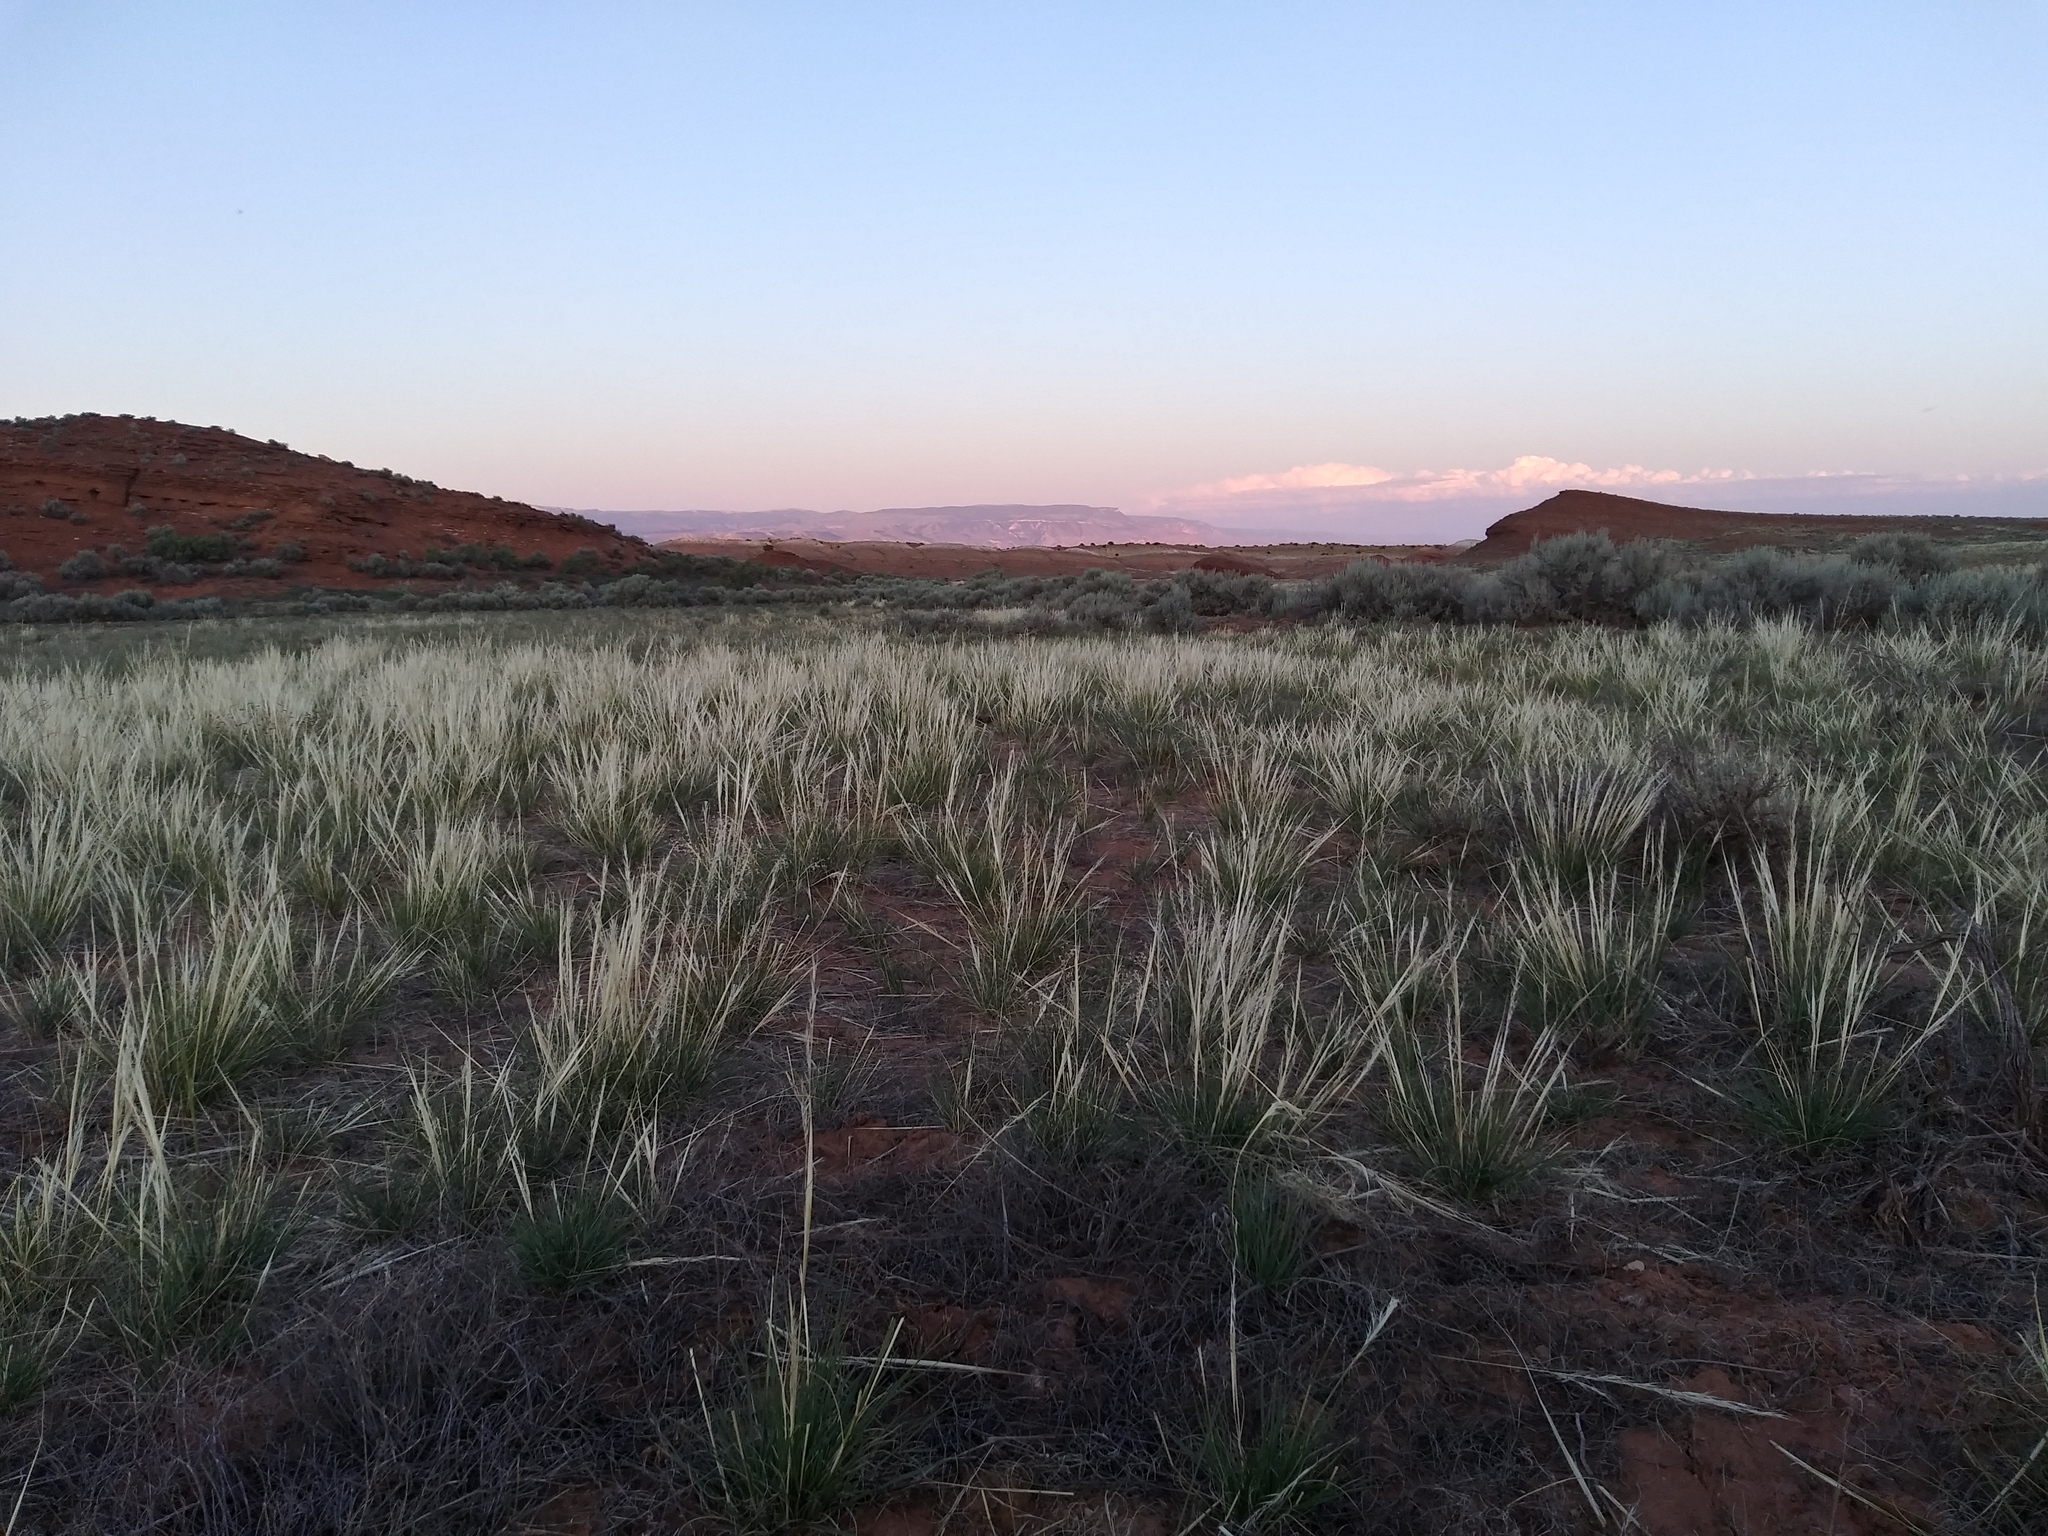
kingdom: Plantae
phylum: Tracheophyta
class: Liliopsida
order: Poales
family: Poaceae
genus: Hesperostipa
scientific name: Hesperostipa comata
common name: Needle-and-thread grass
